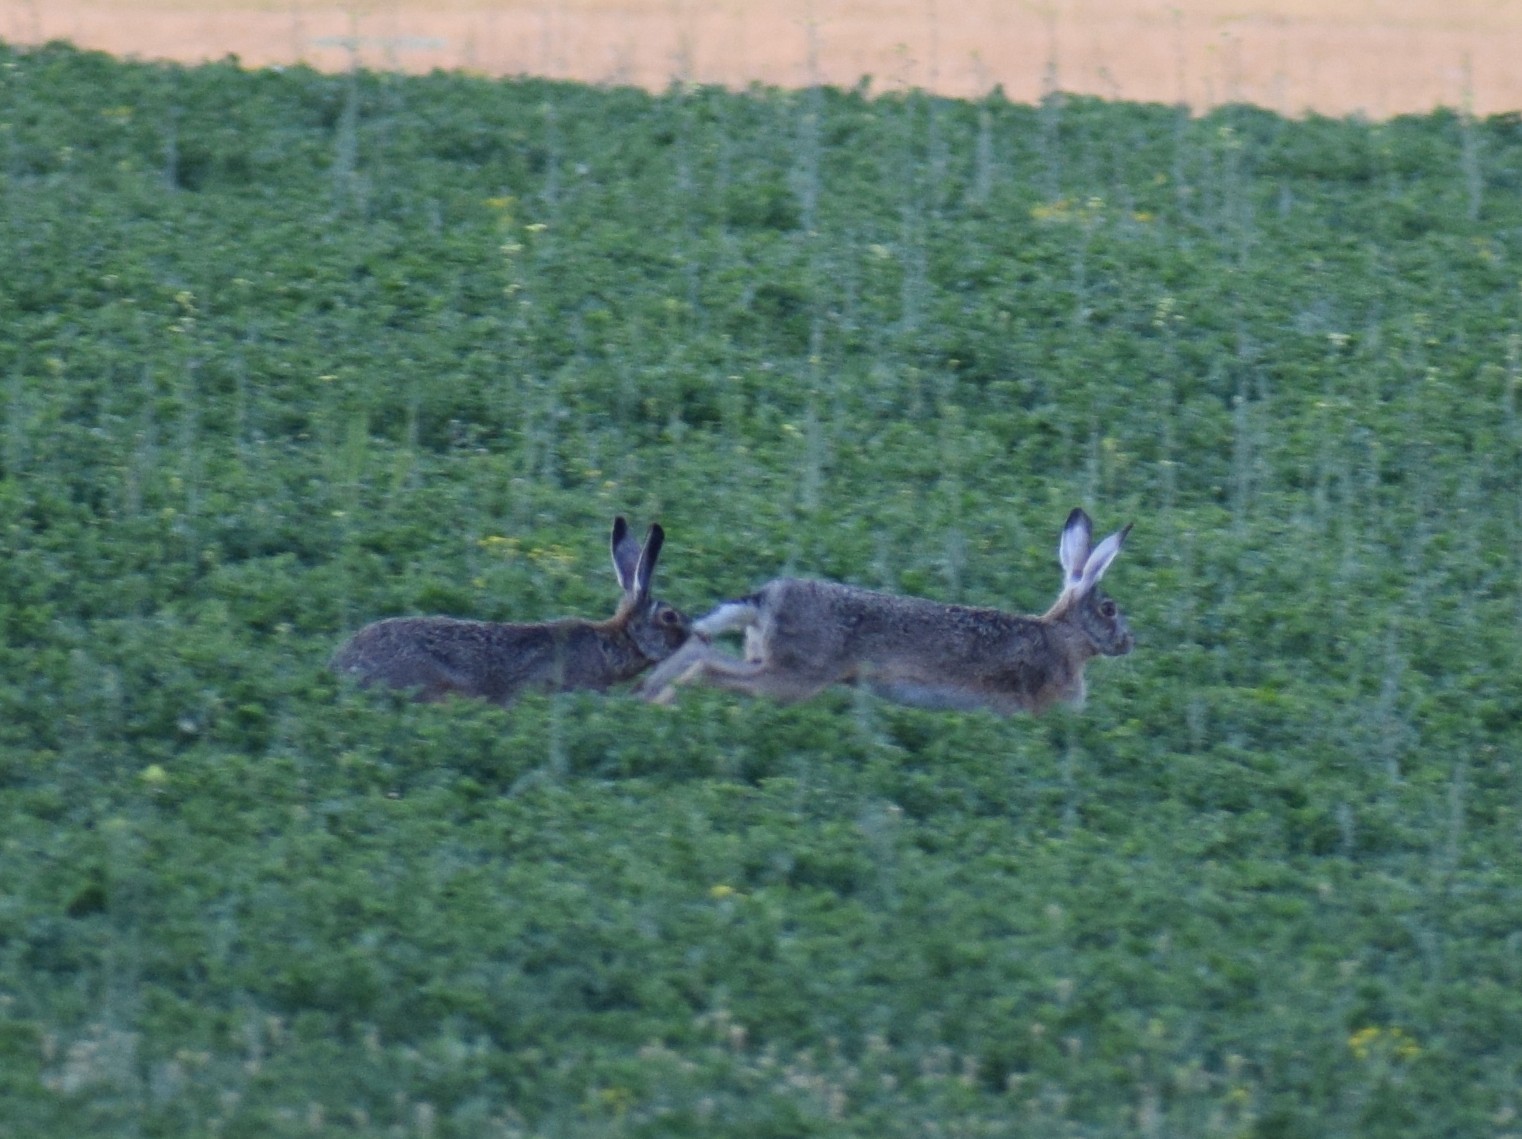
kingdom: Animalia
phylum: Chordata
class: Mammalia
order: Lagomorpha
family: Leporidae
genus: Lepus
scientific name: Lepus europaeus
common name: European hare
